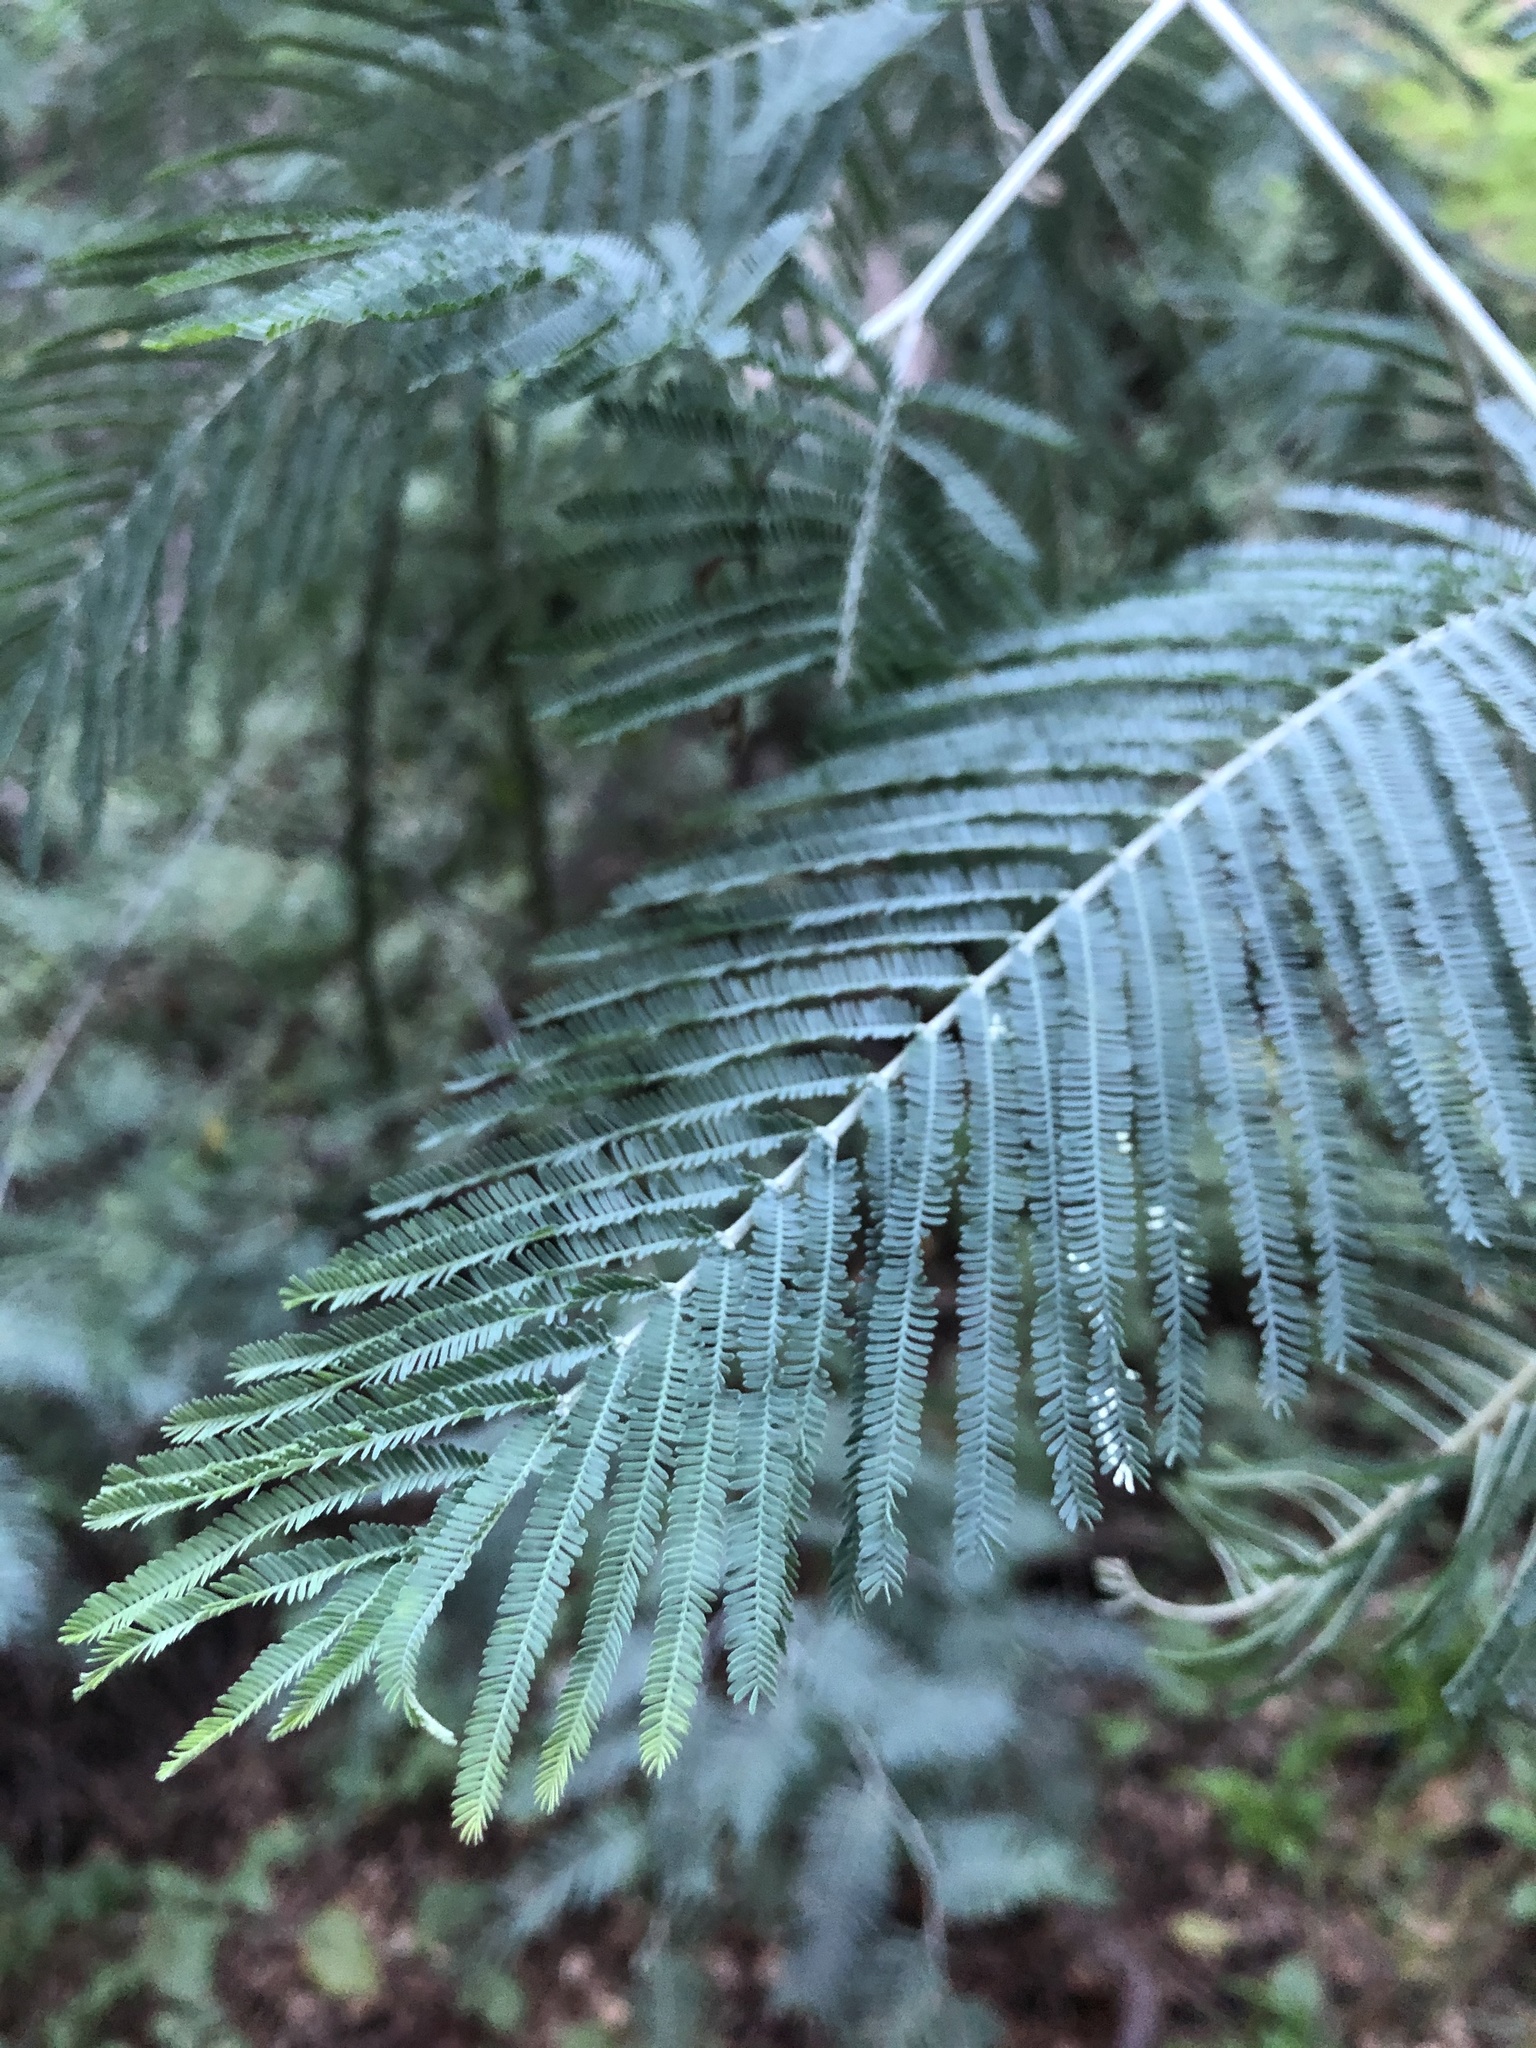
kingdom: Plantae
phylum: Tracheophyta
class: Magnoliopsida
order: Fabales
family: Fabaceae
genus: Acacia
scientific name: Acacia dealbata
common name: Silver wattle
